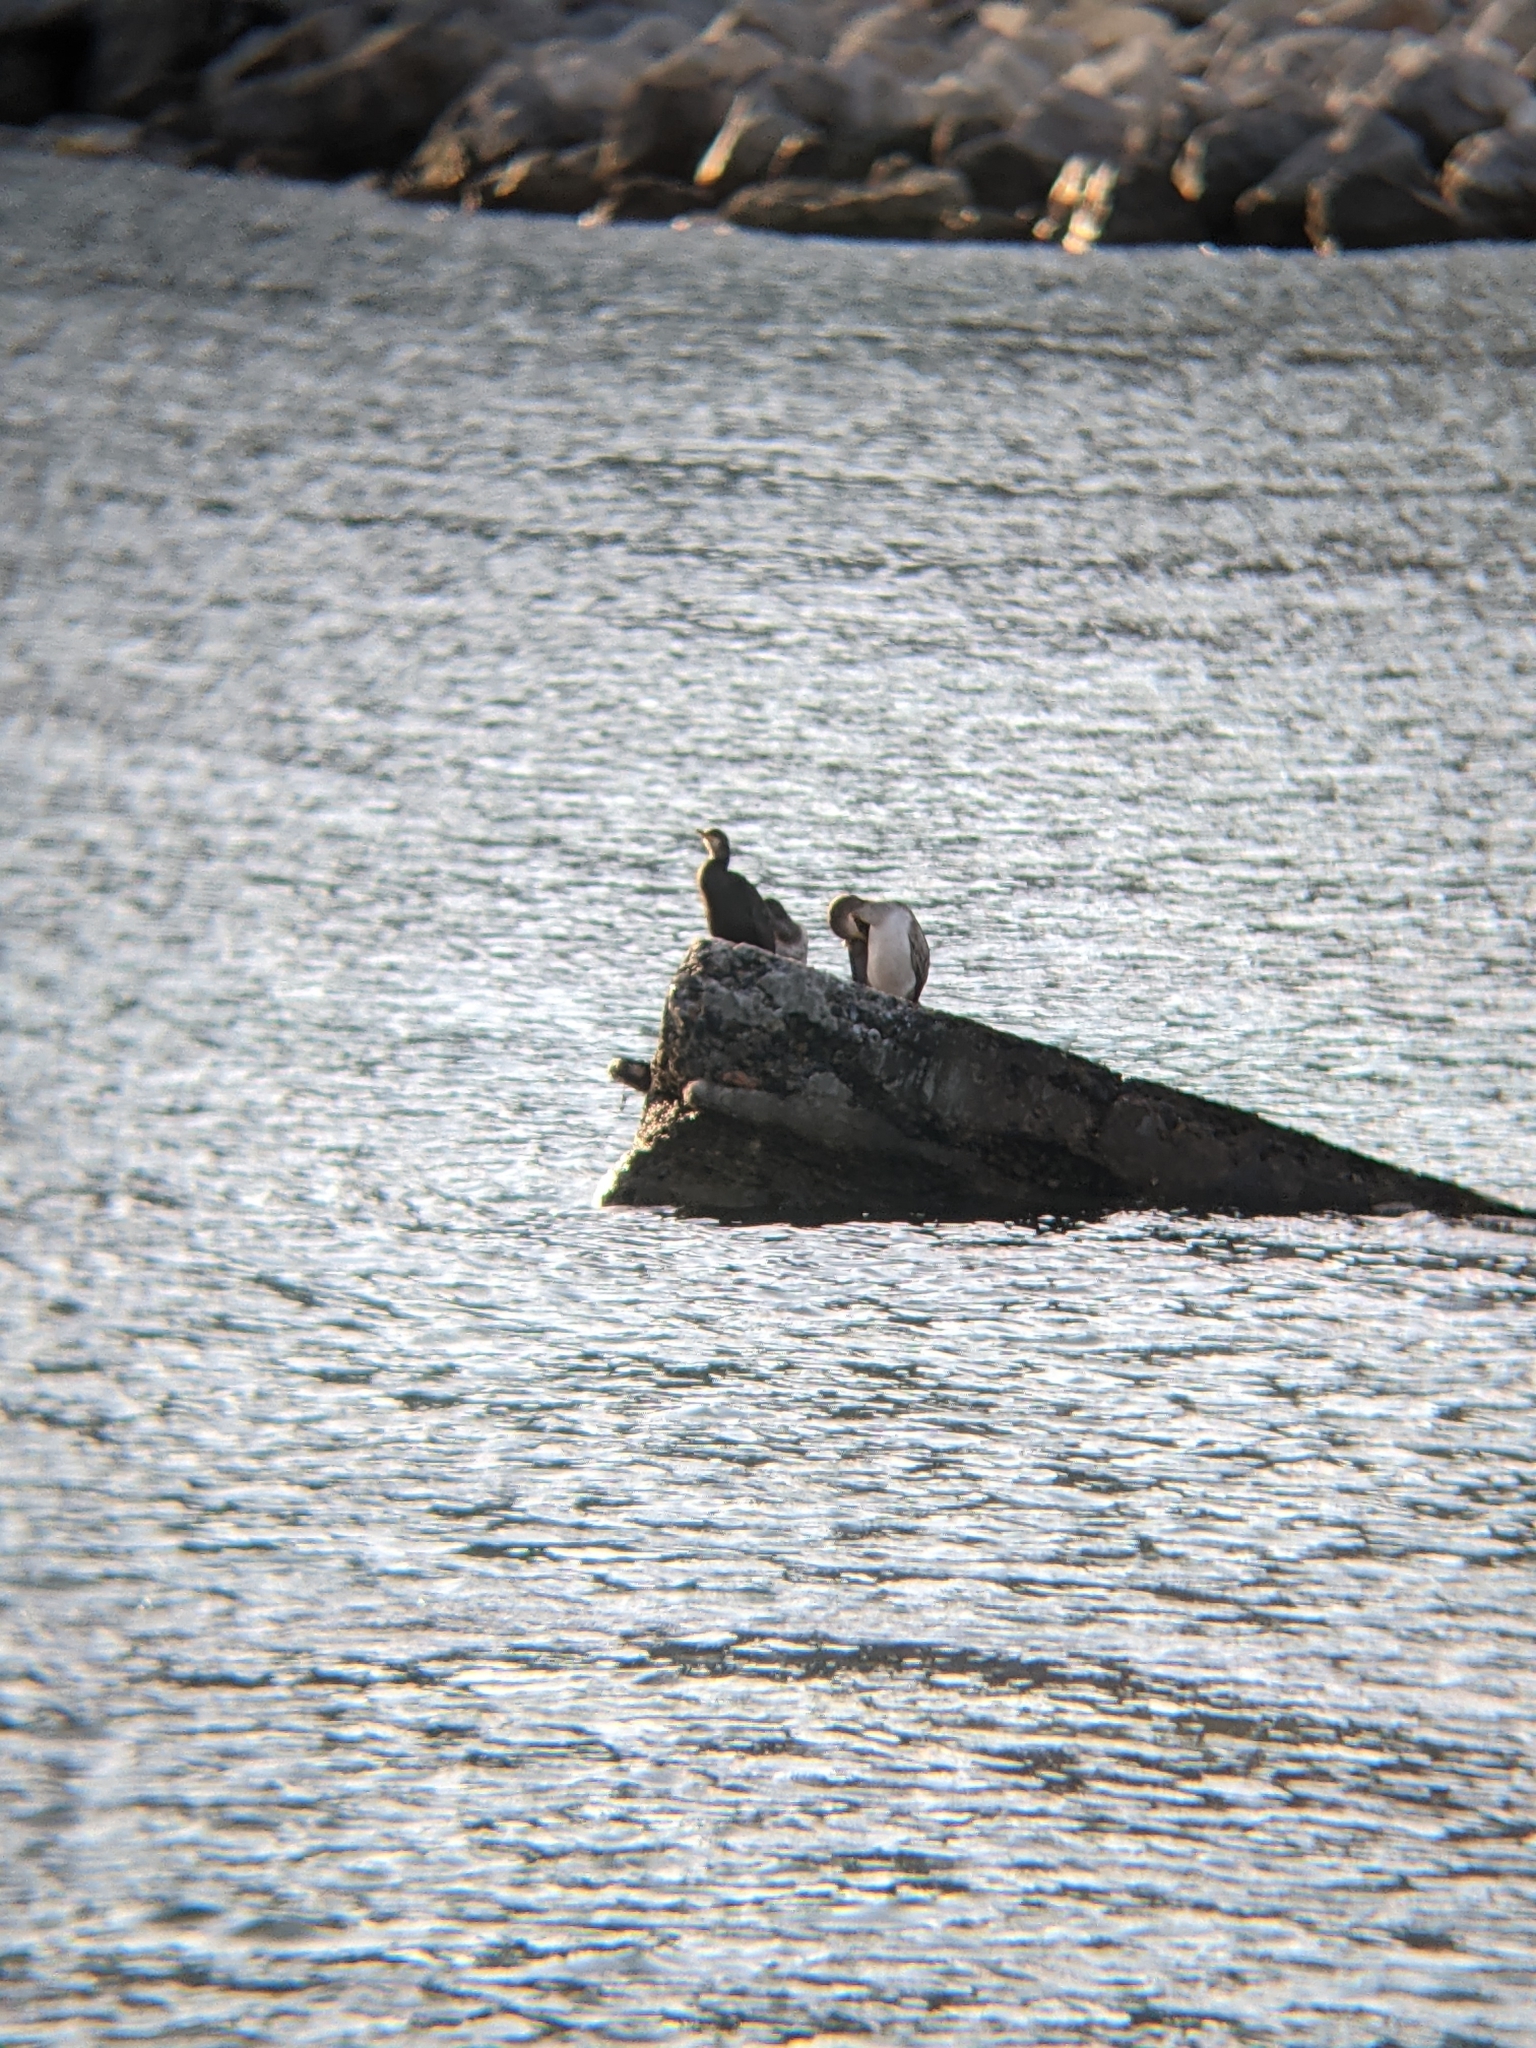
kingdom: Animalia
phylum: Chordata
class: Aves
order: Suliformes
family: Phalacrocoracidae
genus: Phalacrocorax
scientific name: Phalacrocorax aristotelis
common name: European shag
